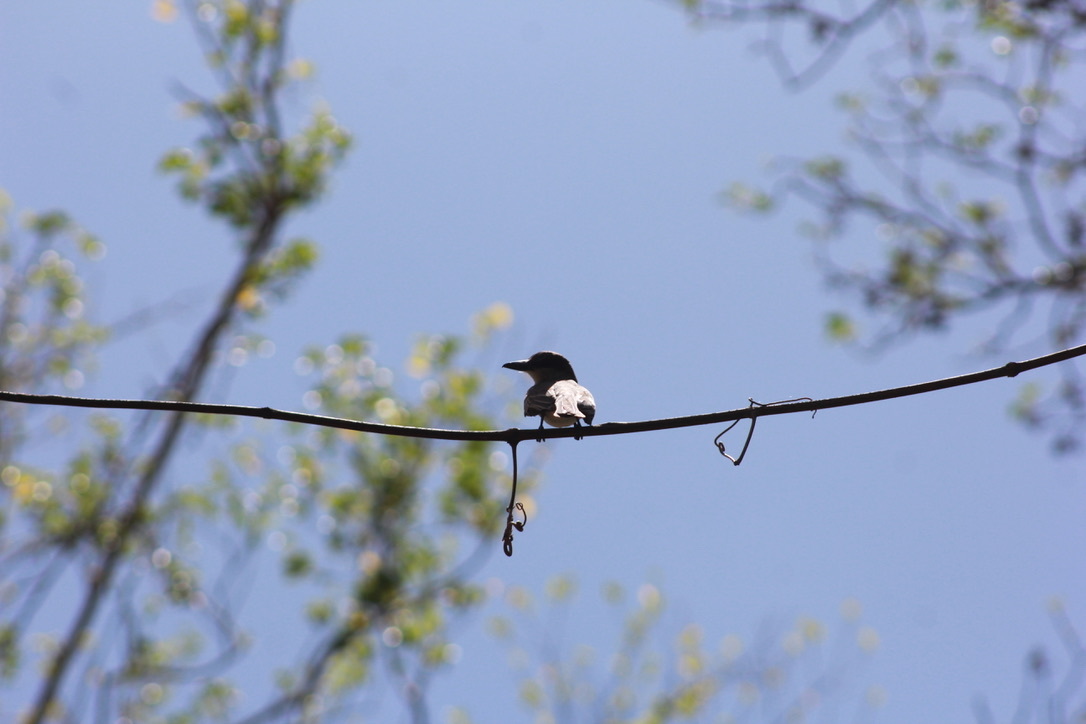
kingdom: Animalia
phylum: Chordata
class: Aves
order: Passeriformes
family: Tyrannidae
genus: Tyrannus
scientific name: Tyrannus dominicensis
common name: Gray kingbird
